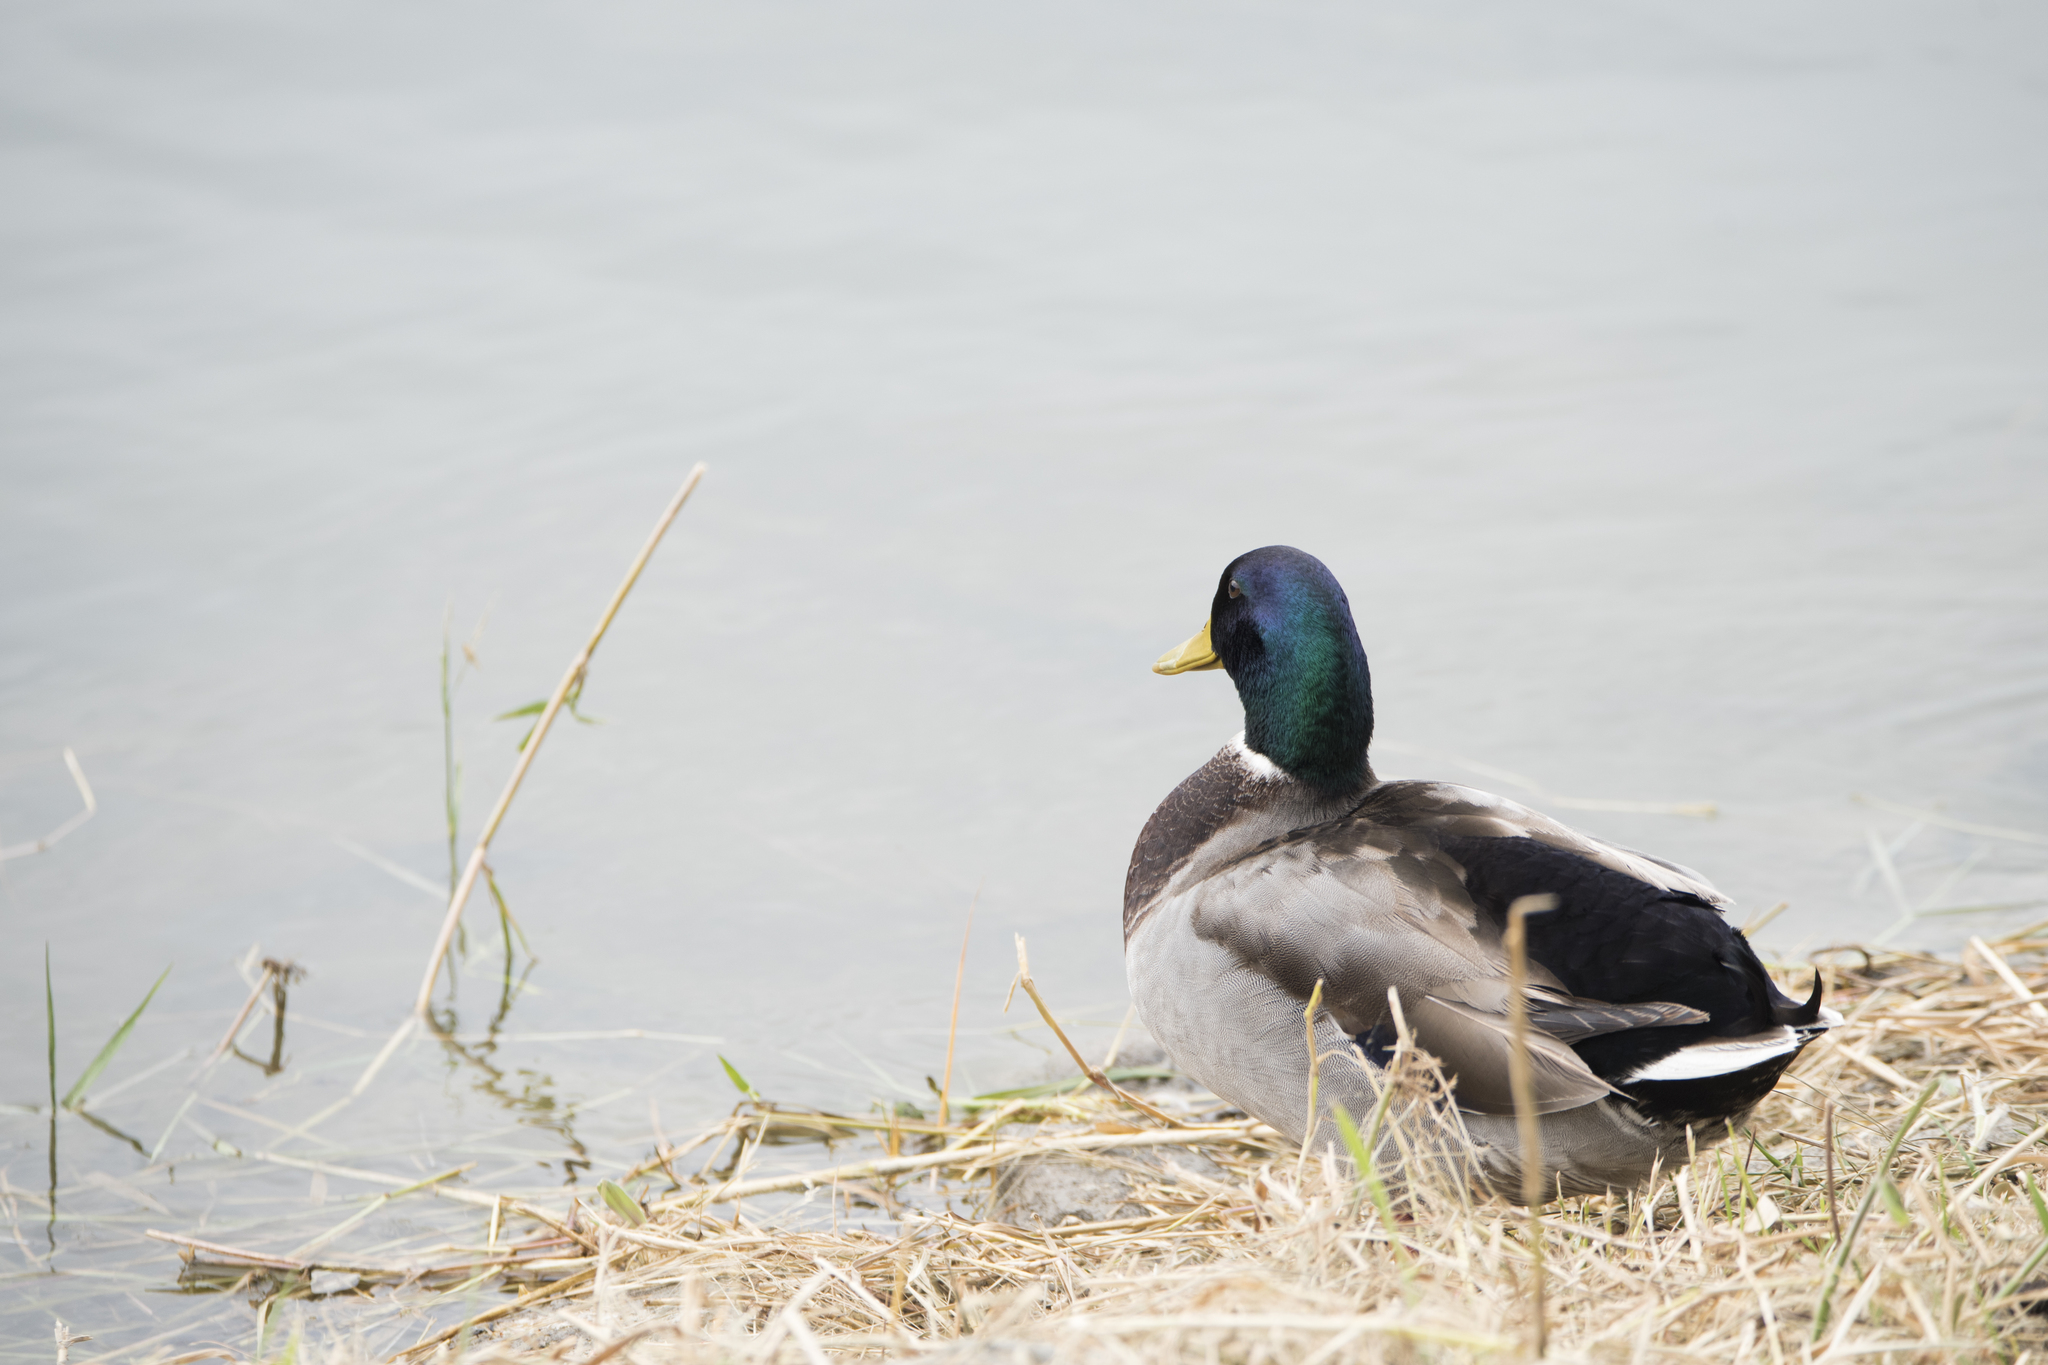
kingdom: Animalia
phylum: Chordata
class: Aves
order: Anseriformes
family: Anatidae
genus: Anas
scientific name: Anas platyrhynchos
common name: Mallard
